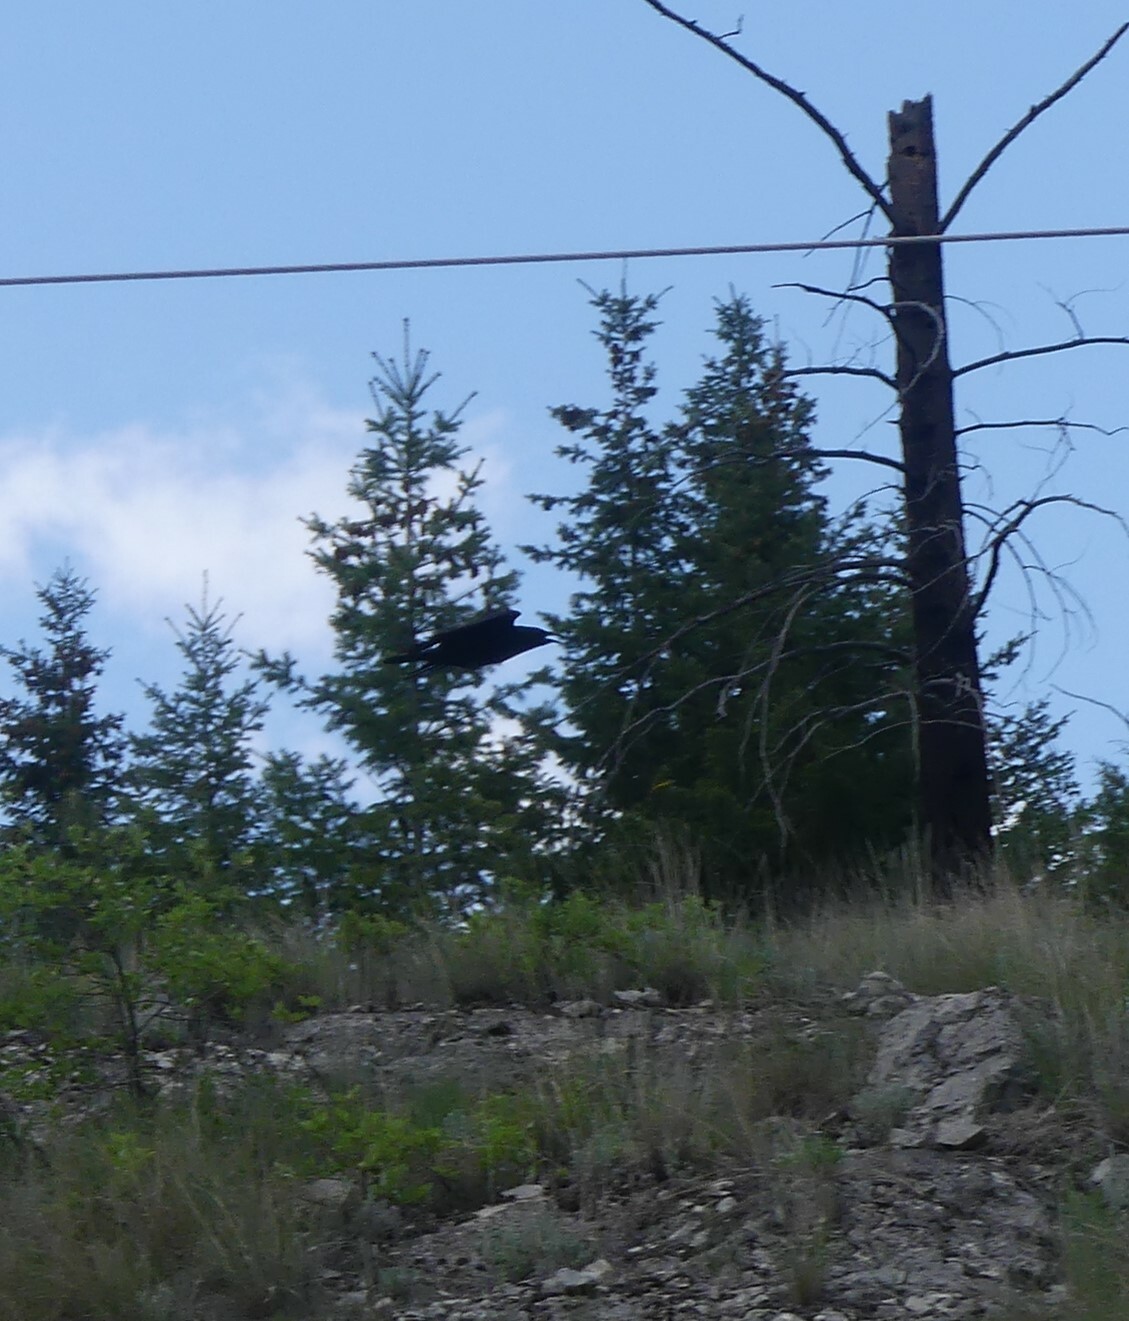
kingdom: Animalia
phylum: Chordata
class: Aves
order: Passeriformes
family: Corvidae
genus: Corvus
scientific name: Corvus corax
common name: Common raven
